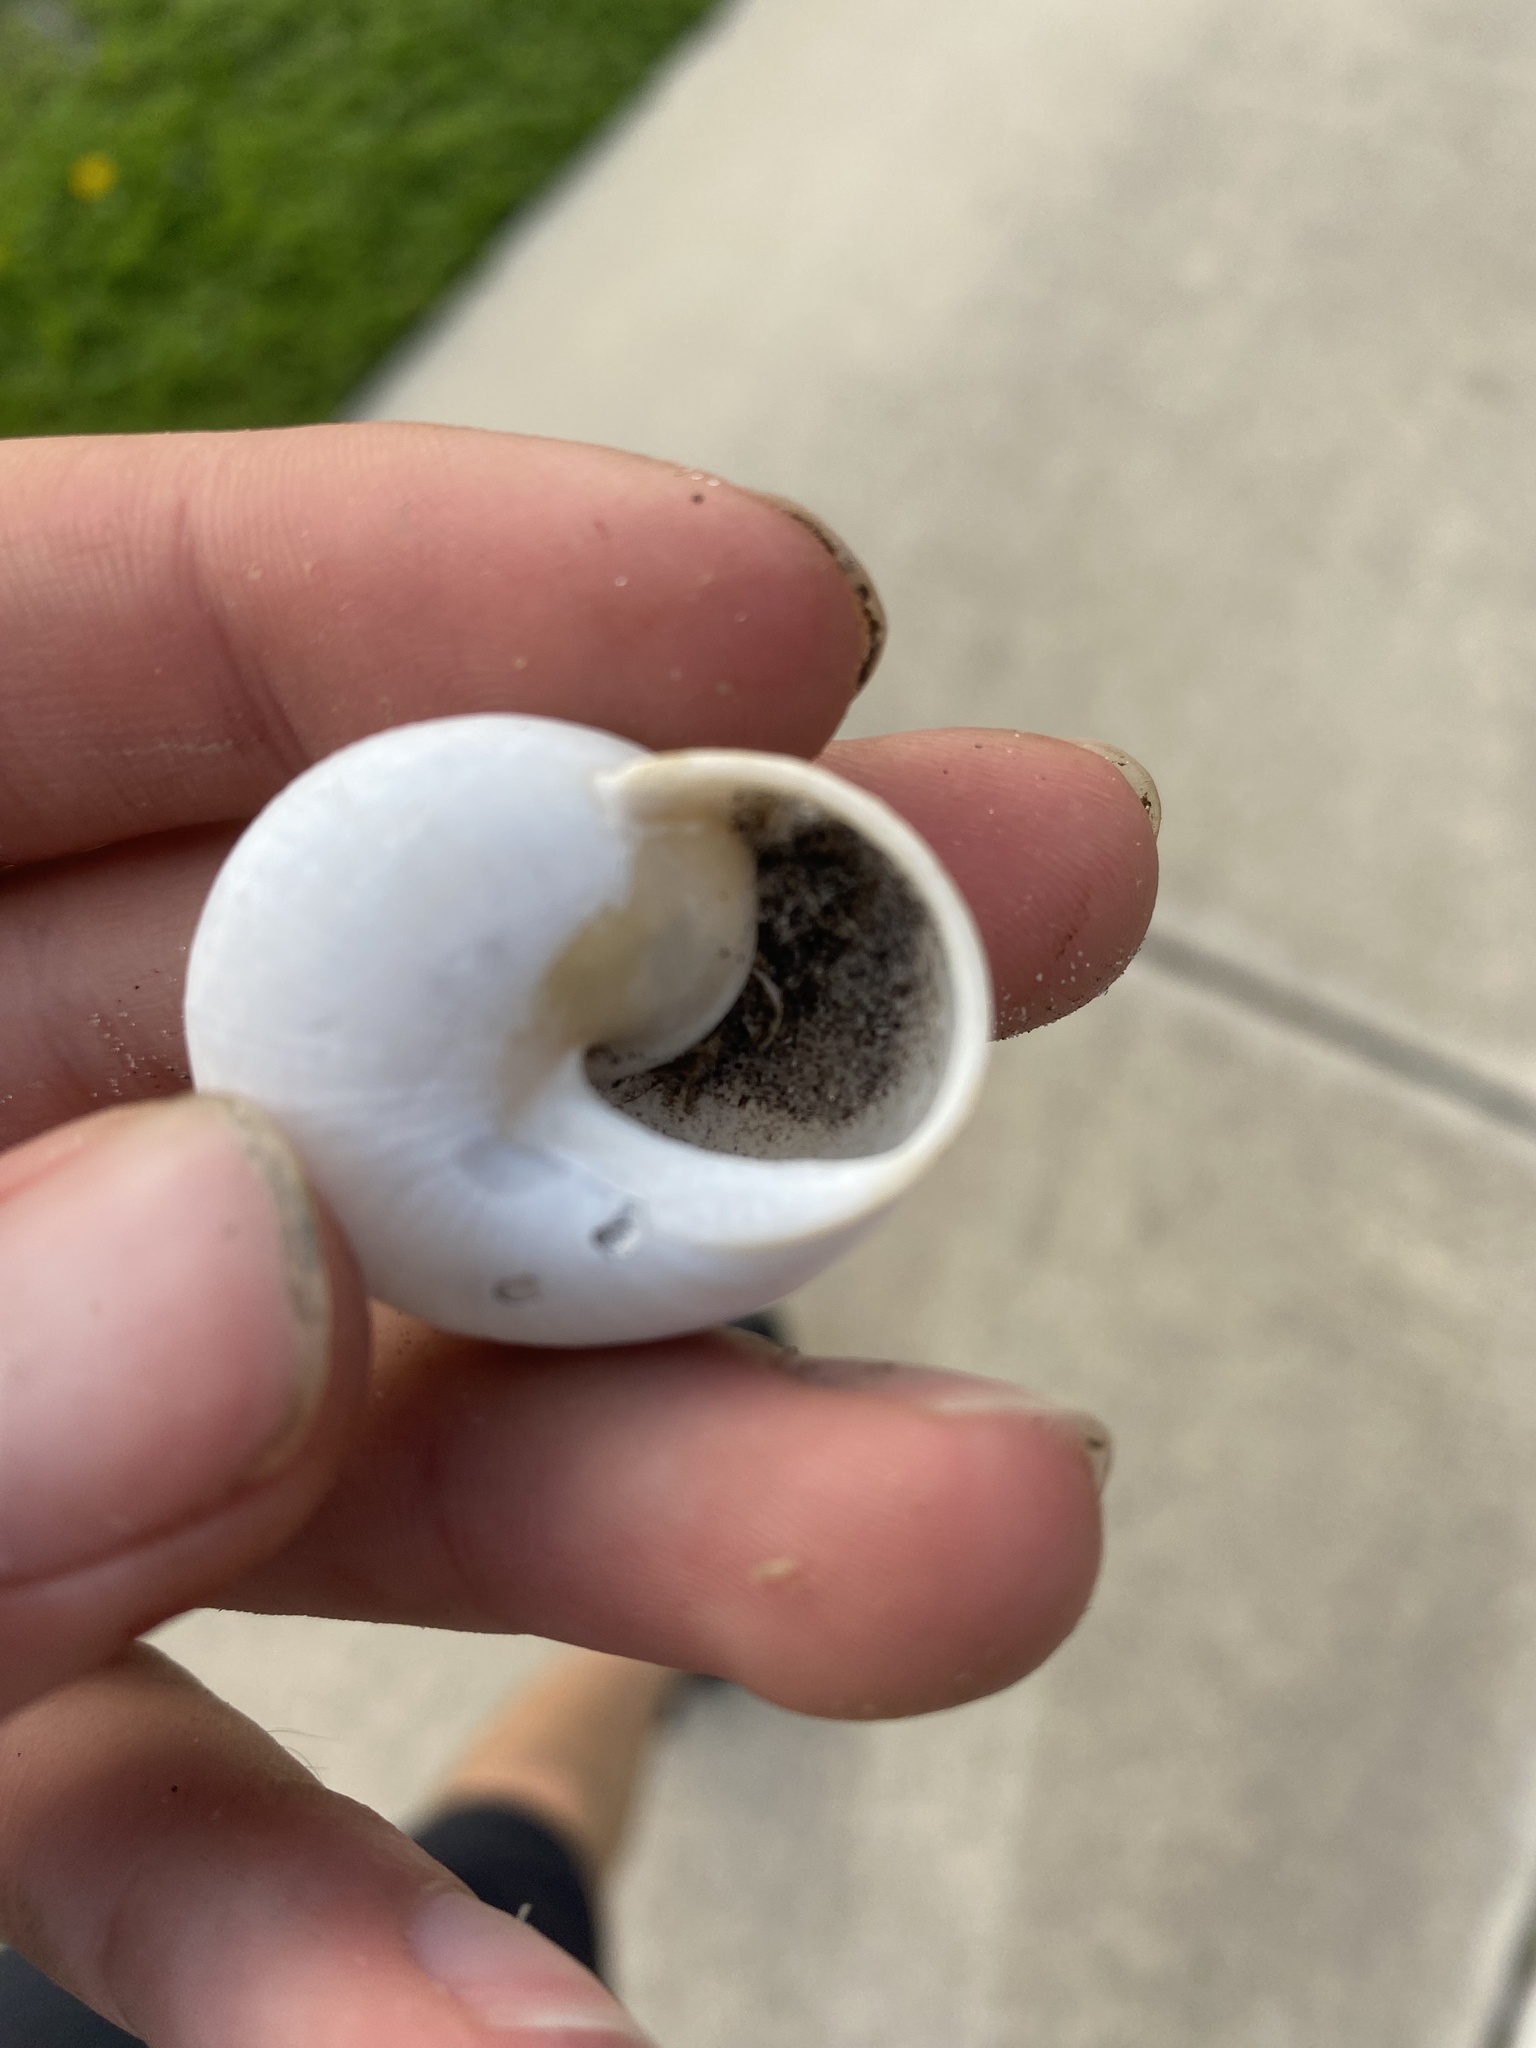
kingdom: Animalia
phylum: Mollusca
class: Gastropoda
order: Stylommatophora
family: Zachrysiidae
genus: Zachrysia
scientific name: Zachrysia provisoria
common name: Garden zachrysia
